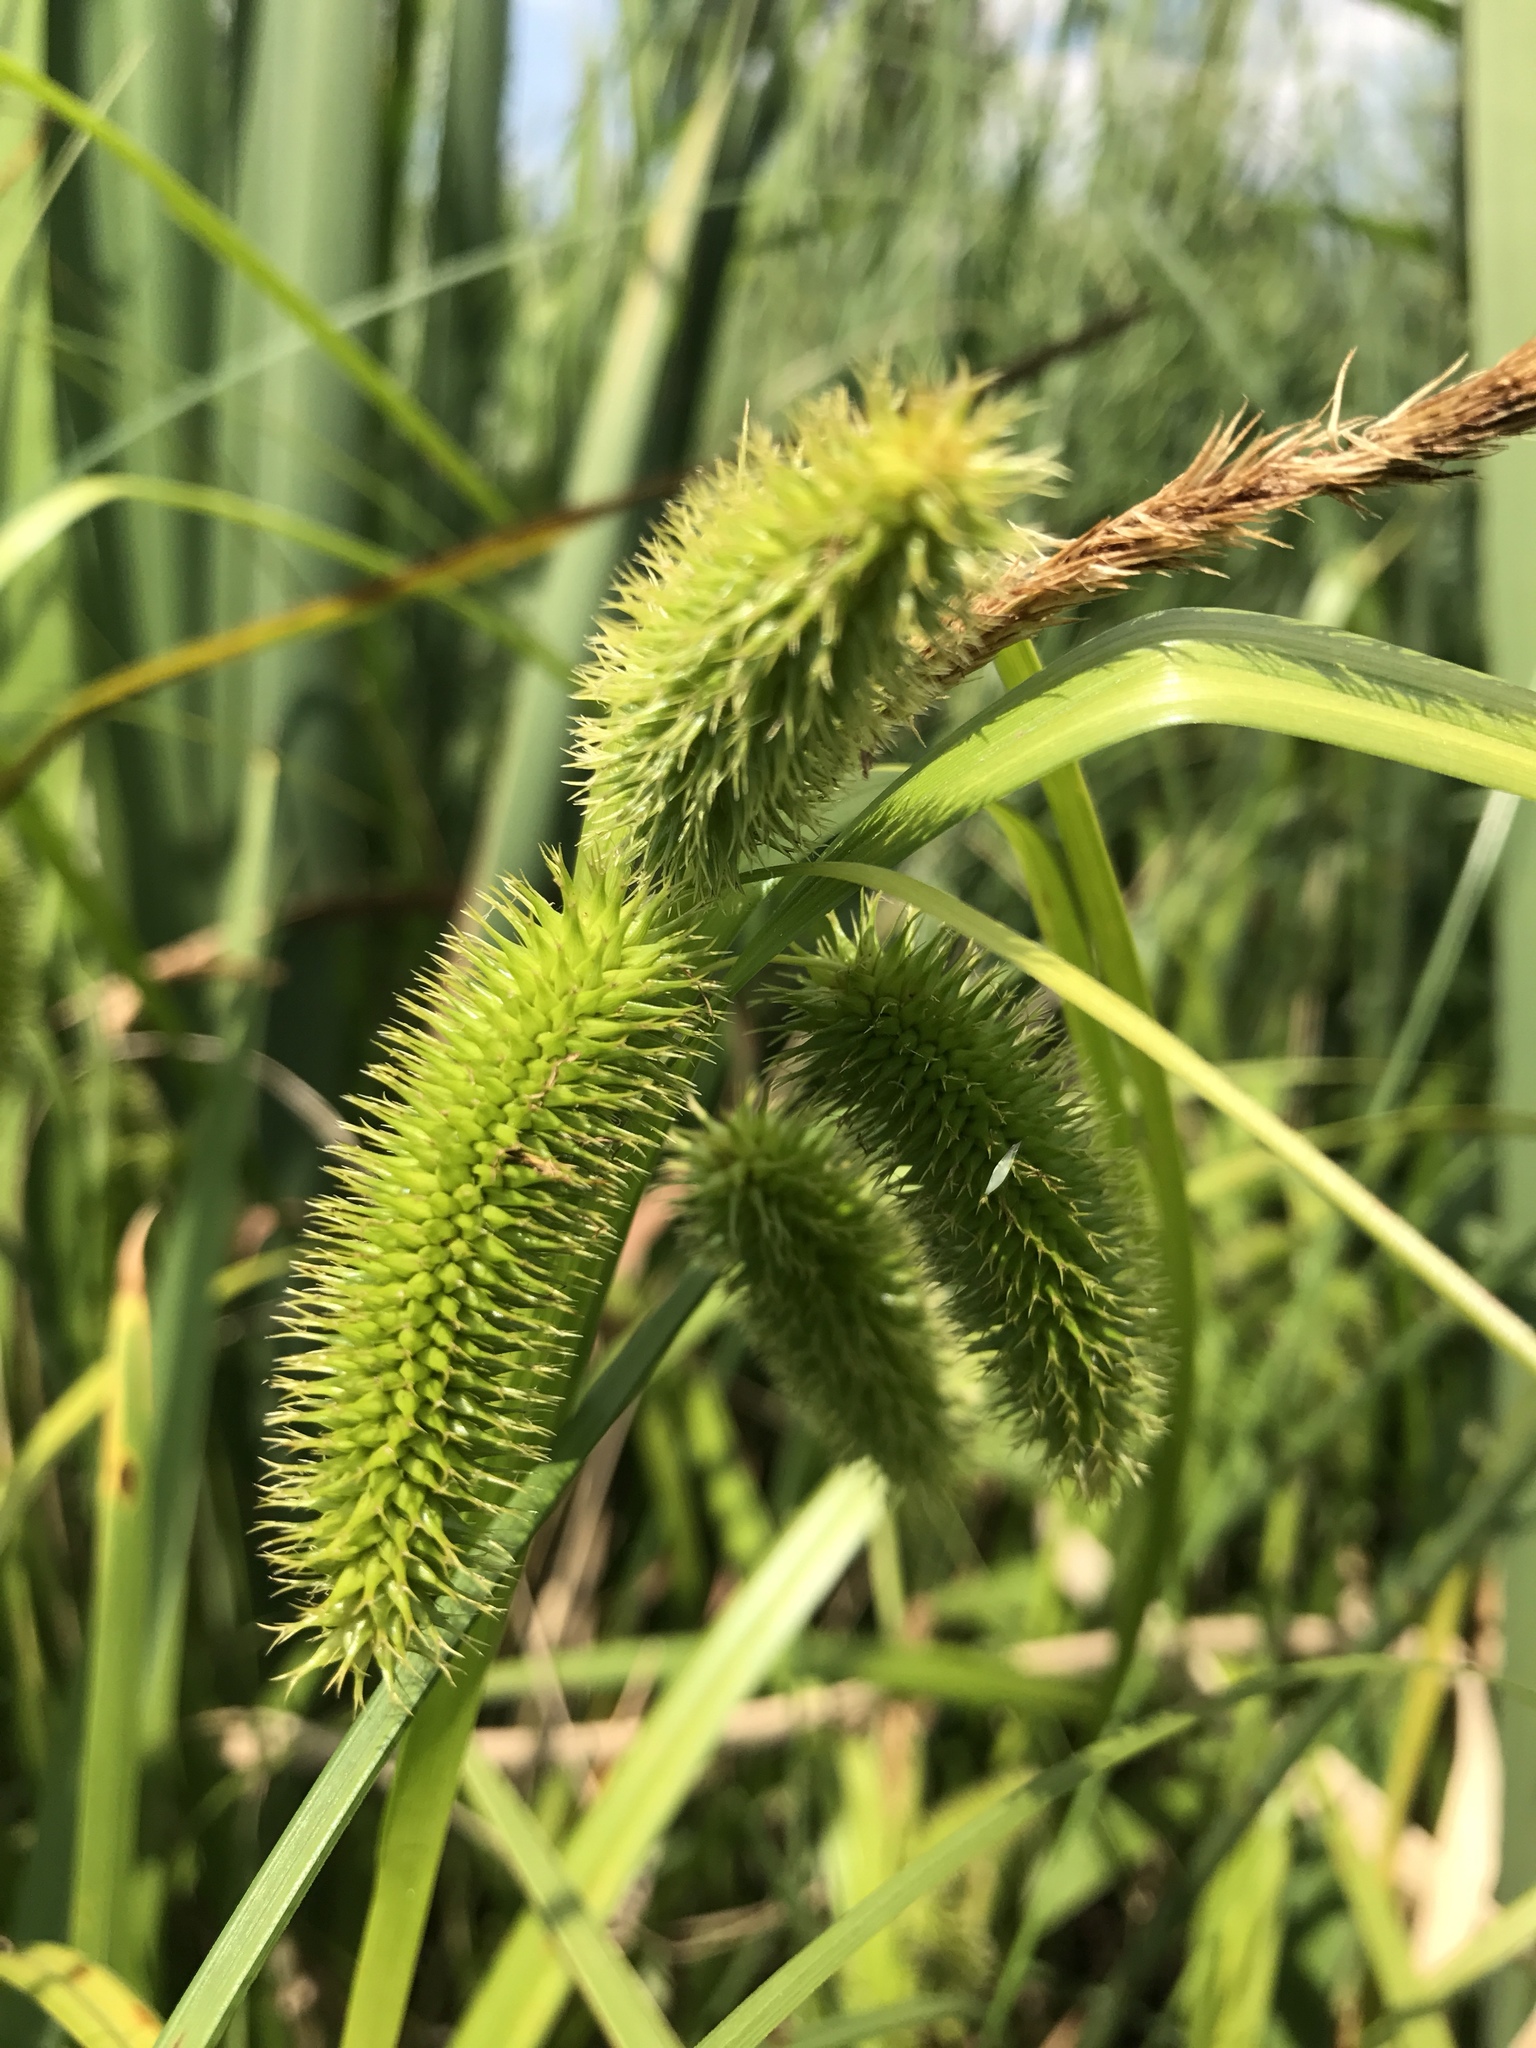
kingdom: Plantae
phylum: Tracheophyta
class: Liliopsida
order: Poales
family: Cyperaceae
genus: Carex
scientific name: Carex comosa
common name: Bristly sedge
